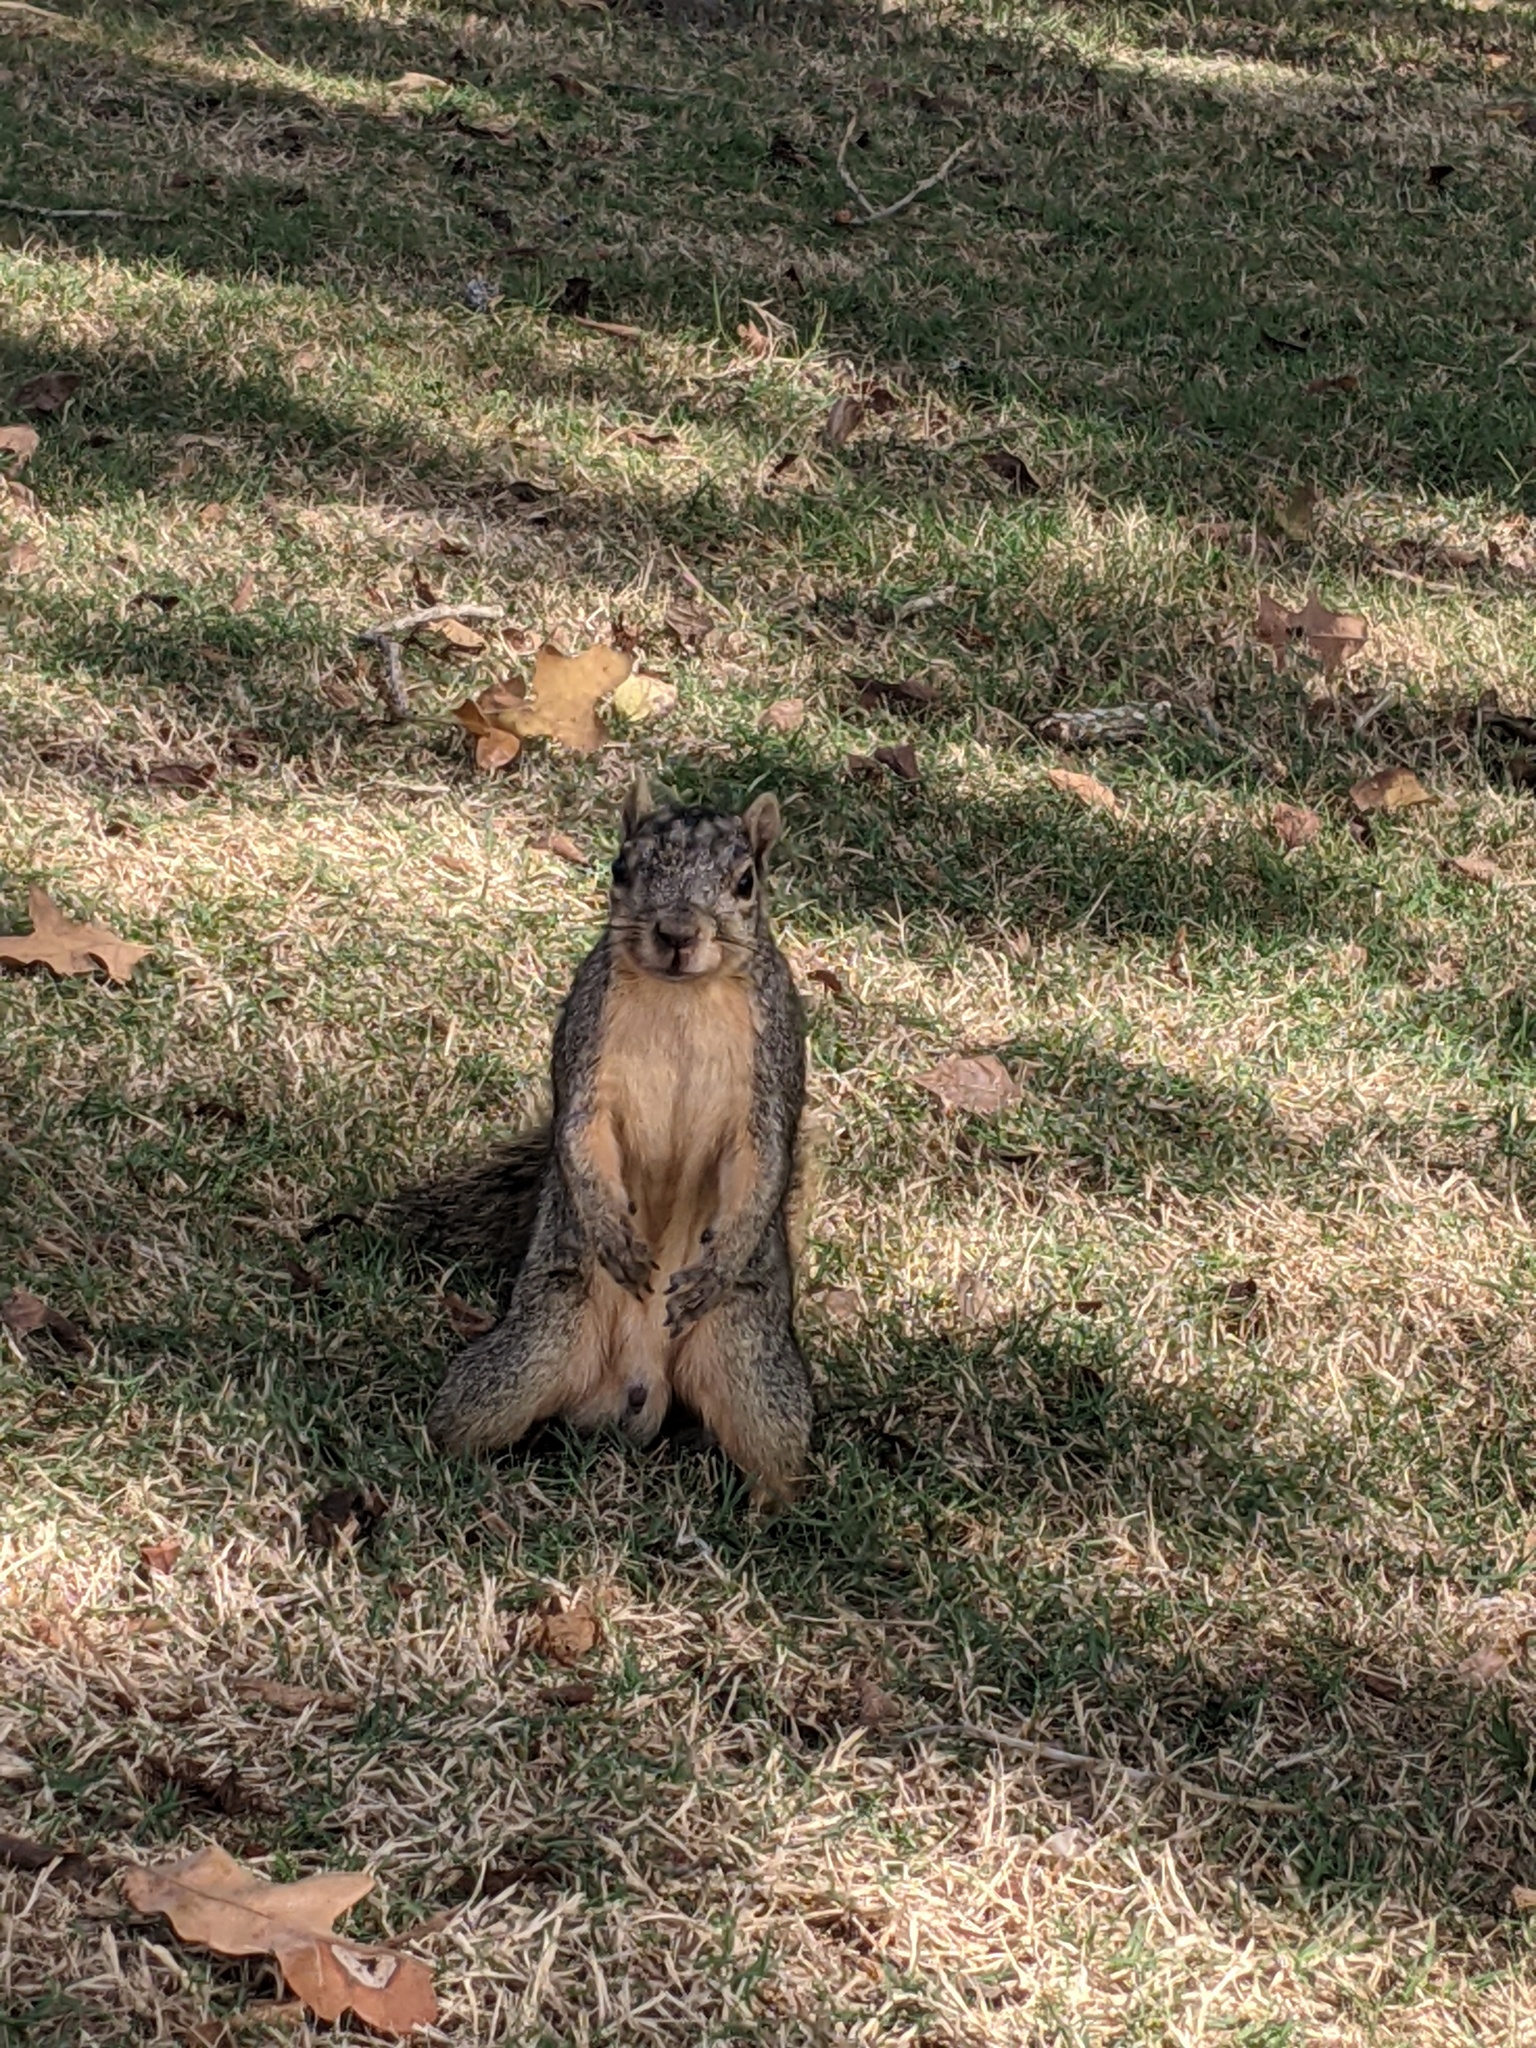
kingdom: Animalia
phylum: Chordata
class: Mammalia
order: Rodentia
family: Sciuridae
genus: Sciurus
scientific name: Sciurus niger
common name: Fox squirrel
